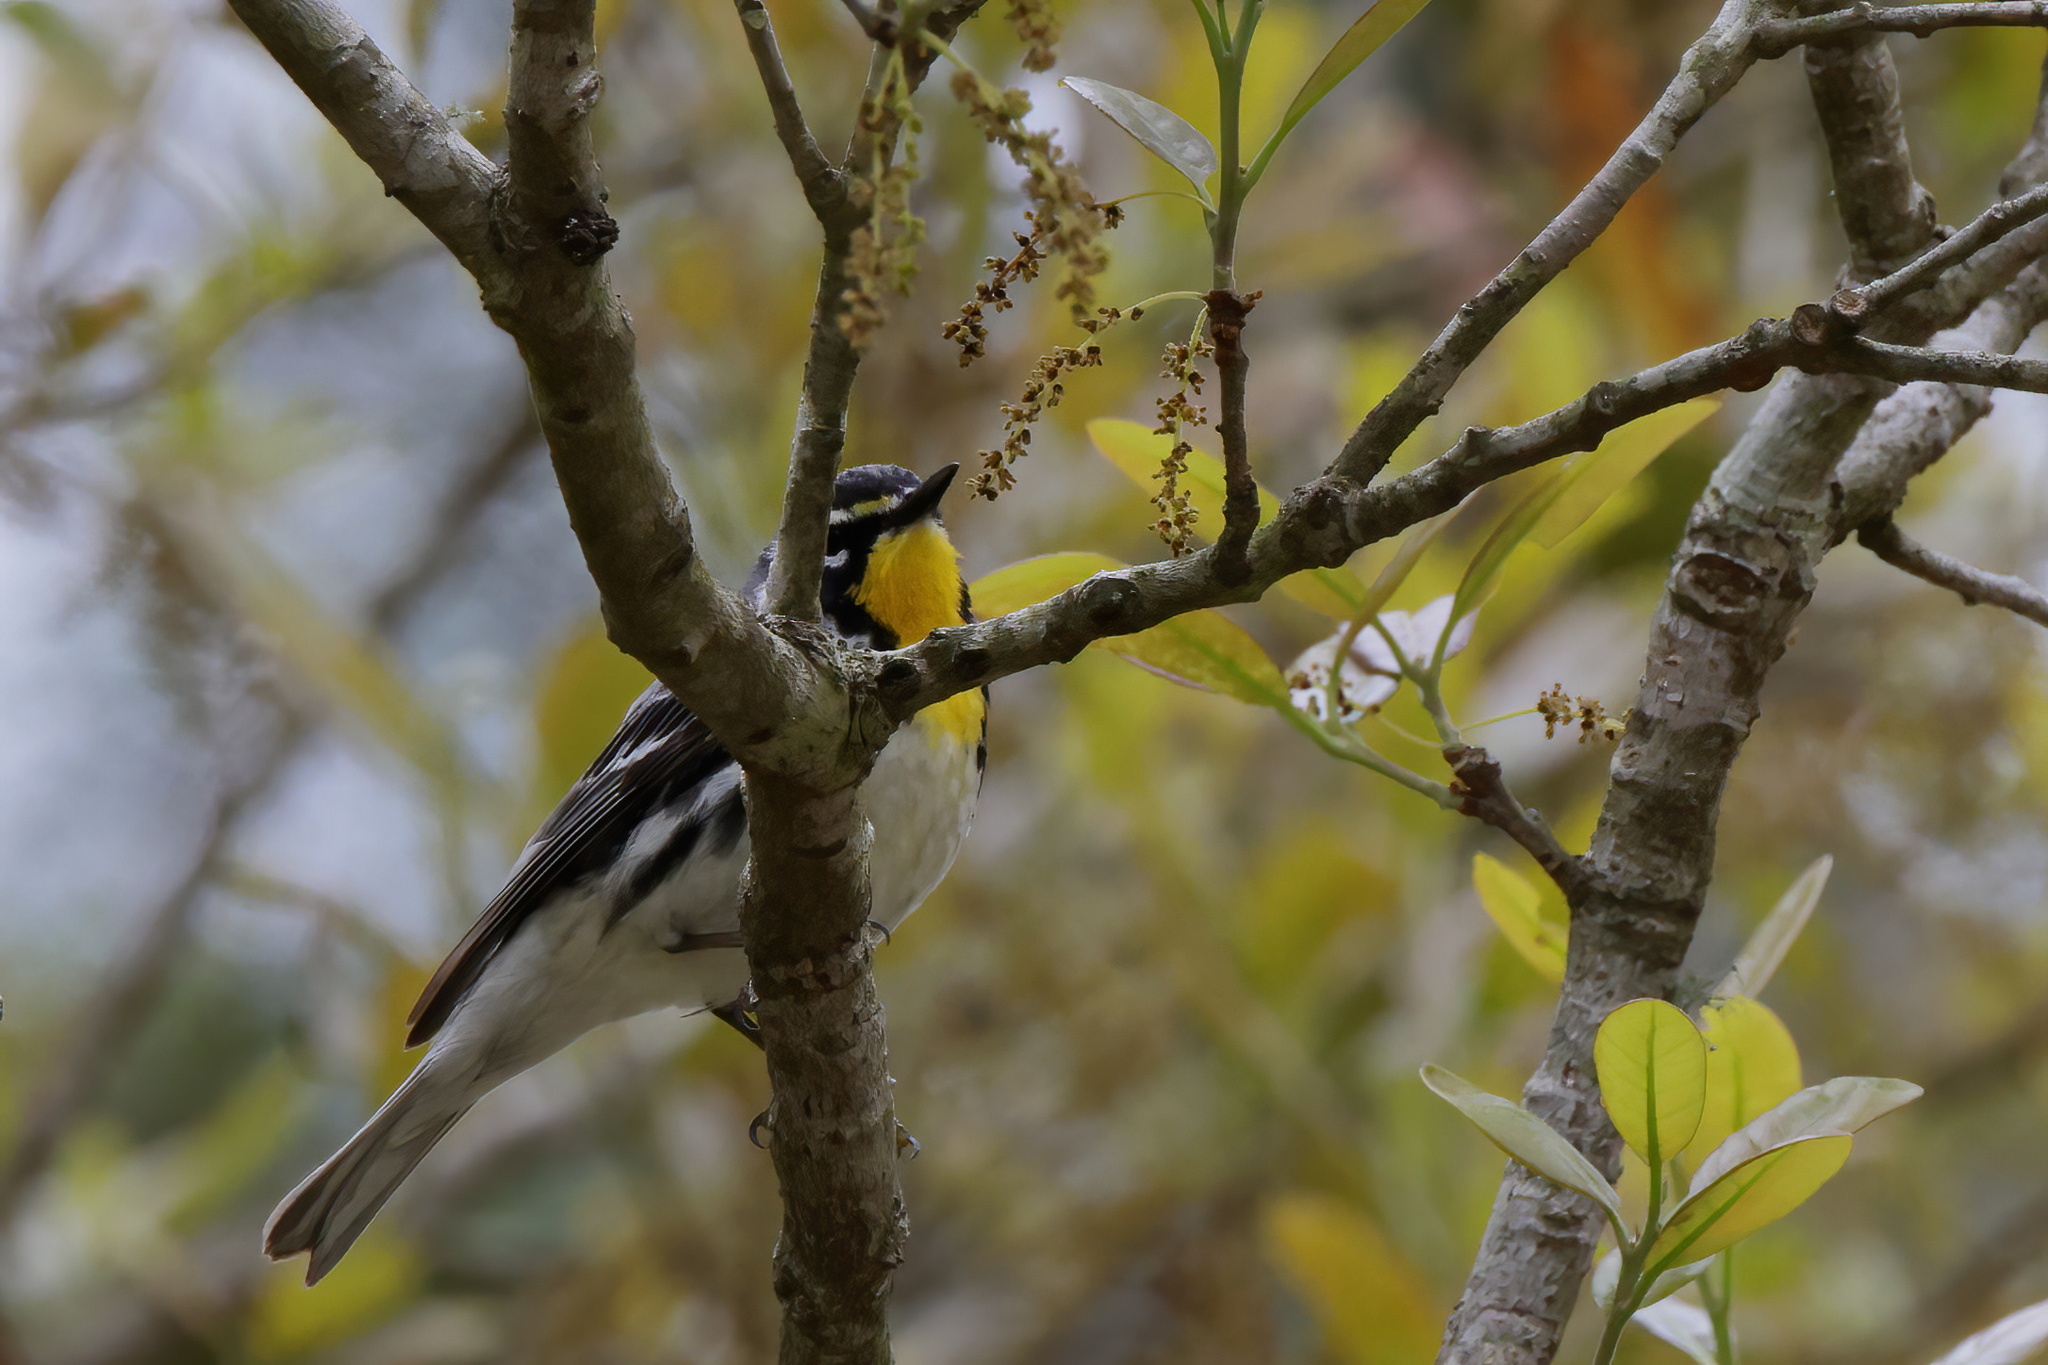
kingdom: Animalia
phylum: Chordata
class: Aves
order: Passeriformes
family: Parulidae
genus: Setophaga
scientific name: Setophaga dominica
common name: Yellow-throated warbler
